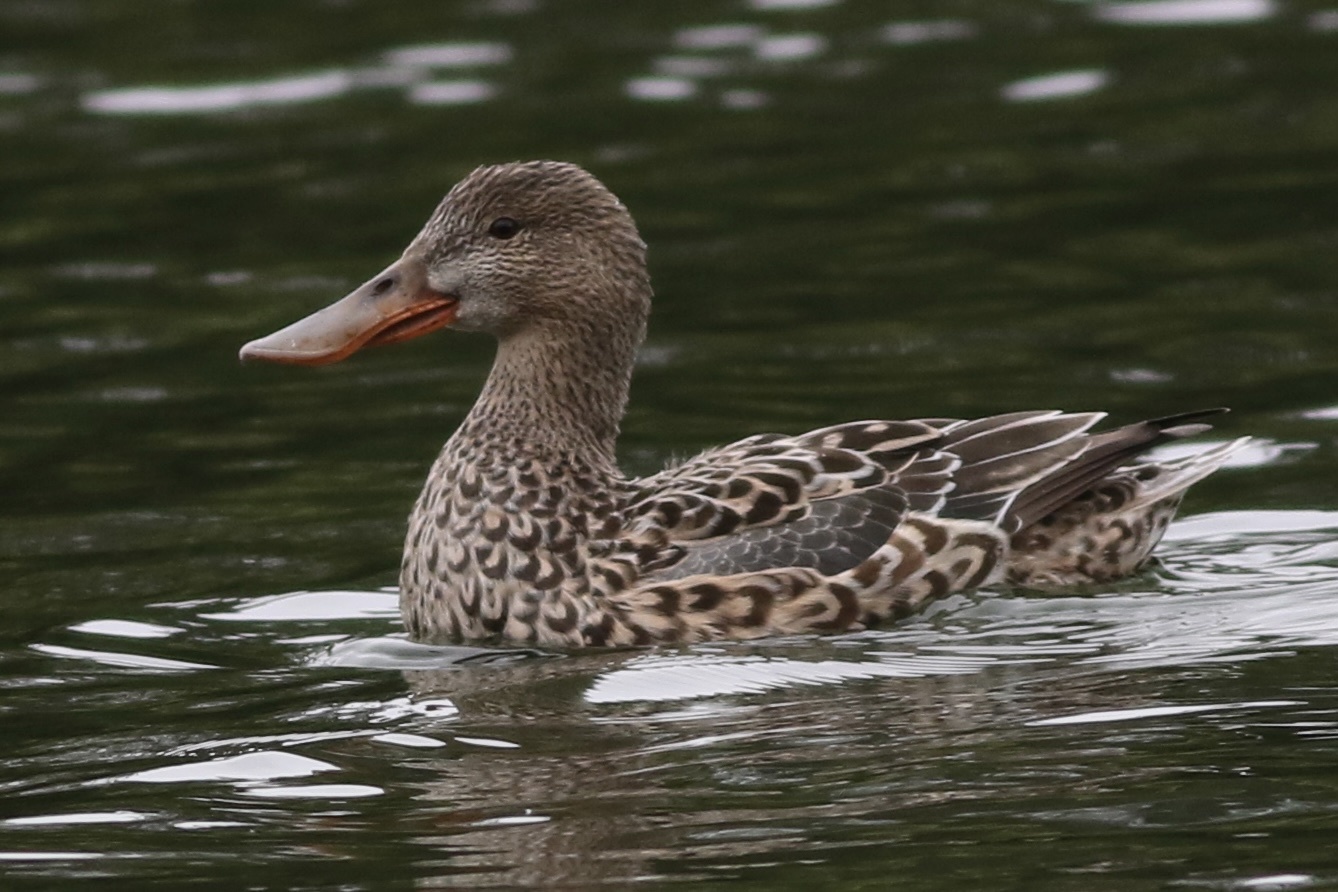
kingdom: Animalia
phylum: Chordata
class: Aves
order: Anseriformes
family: Anatidae
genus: Spatula
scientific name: Spatula clypeata
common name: Northern shoveler
